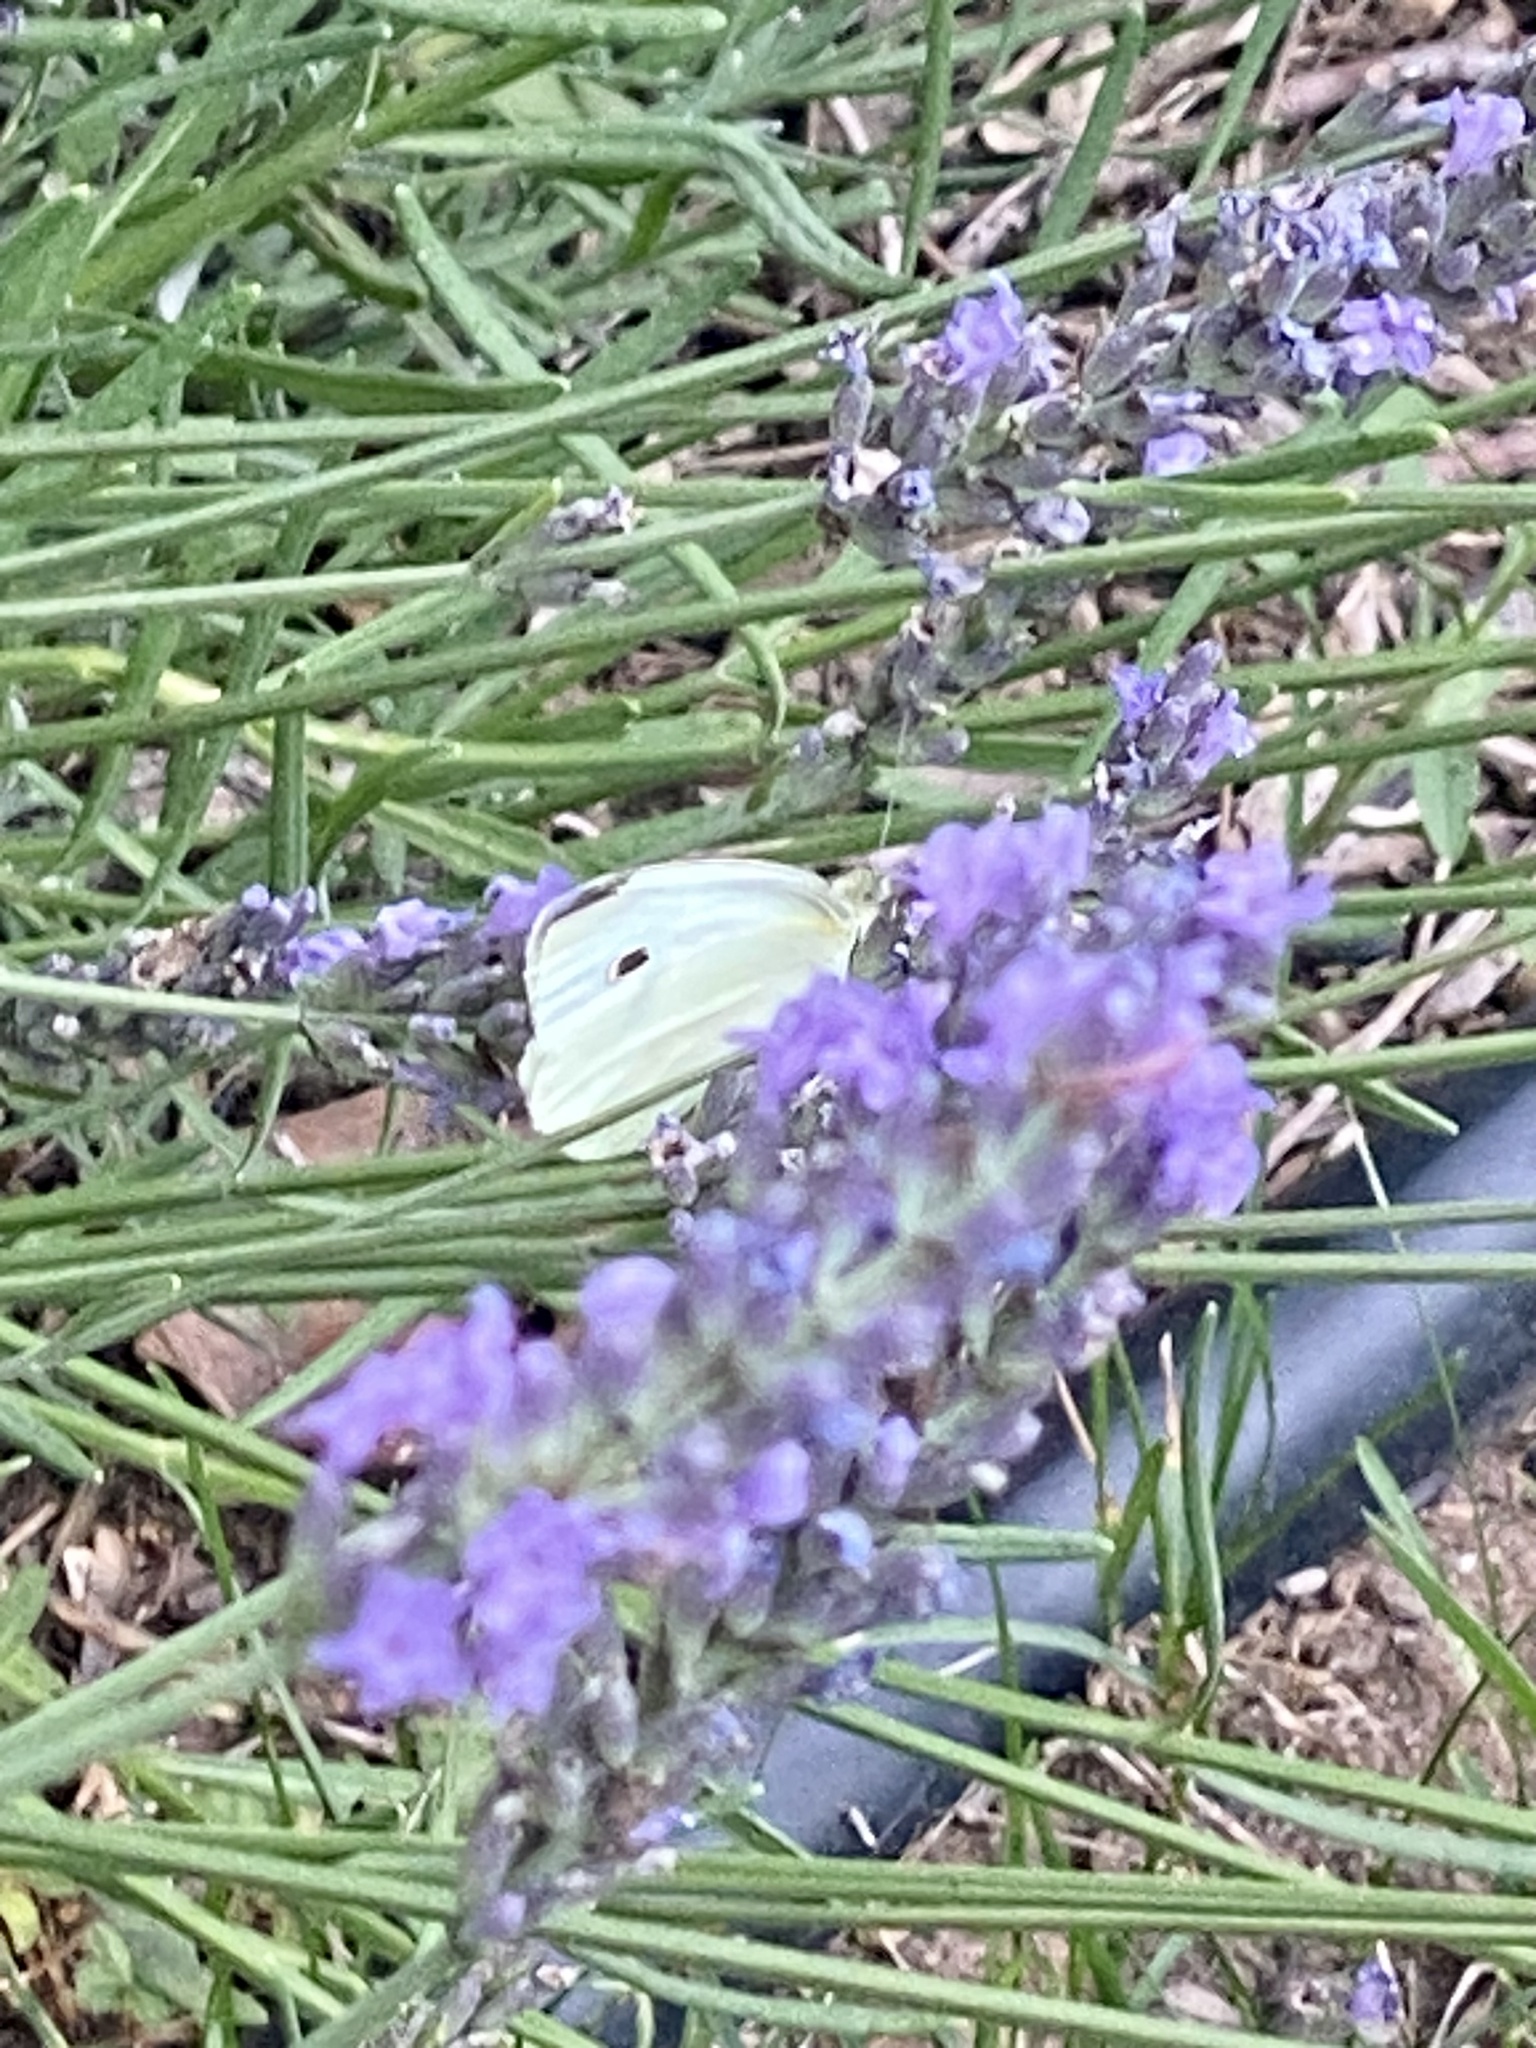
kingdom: Animalia
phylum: Arthropoda
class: Insecta
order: Lepidoptera
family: Pieridae
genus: Pieris
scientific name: Pieris rapae
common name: Small white
